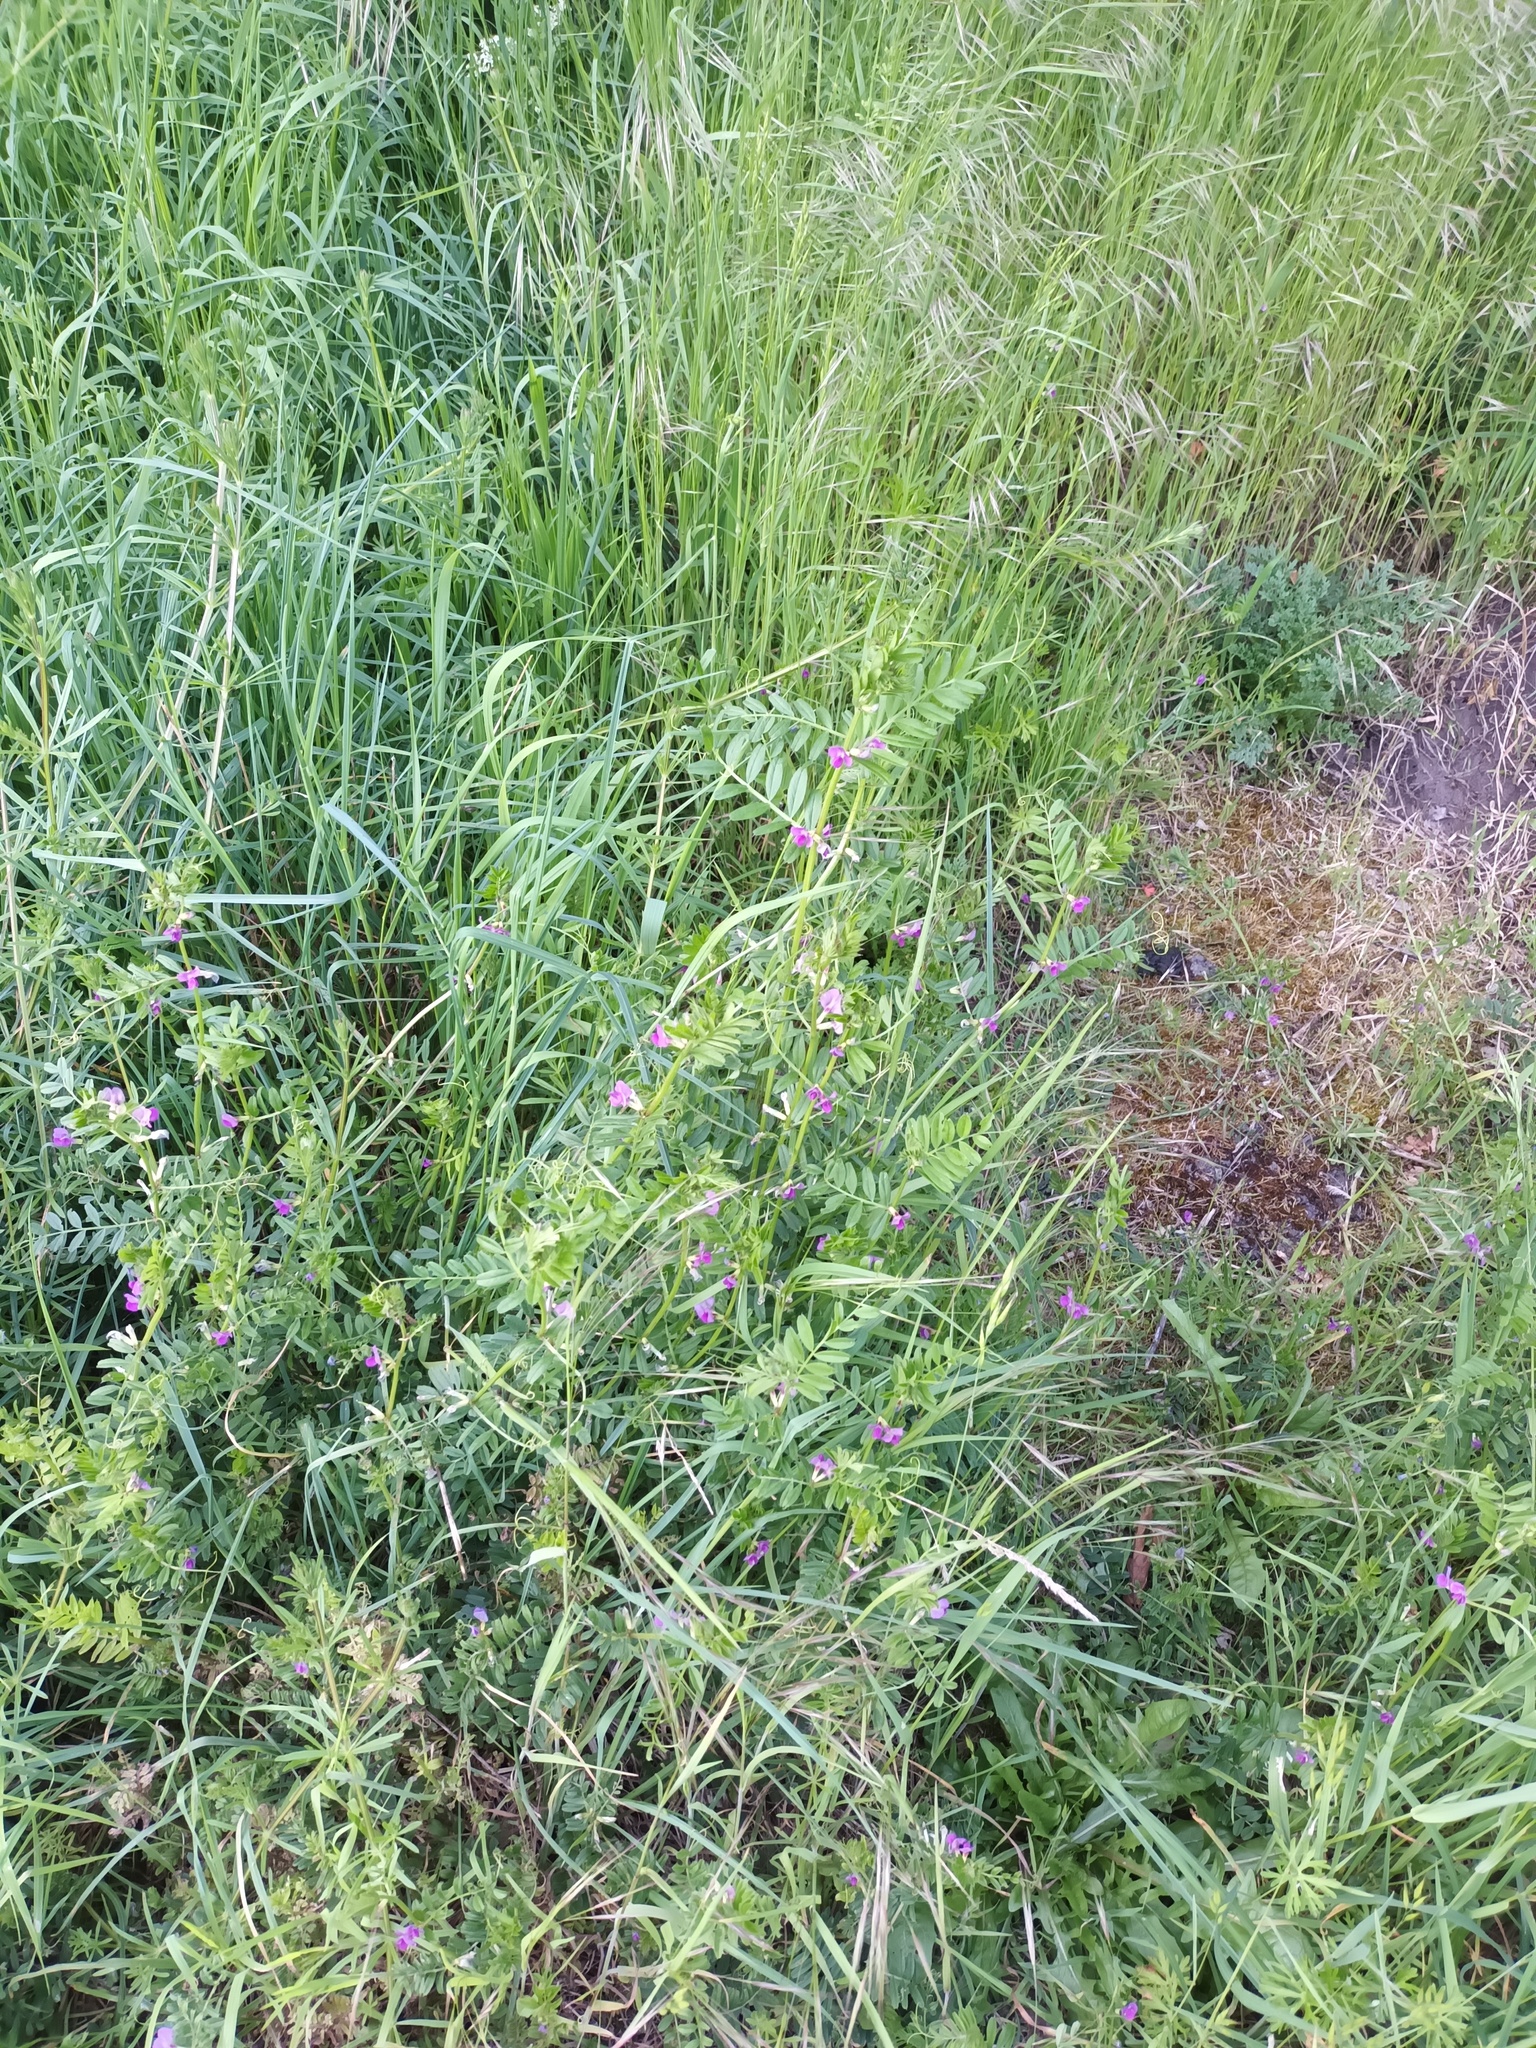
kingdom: Plantae
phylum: Tracheophyta
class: Magnoliopsida
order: Fabales
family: Fabaceae
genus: Vicia
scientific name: Vicia sativa
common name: Garden vetch
